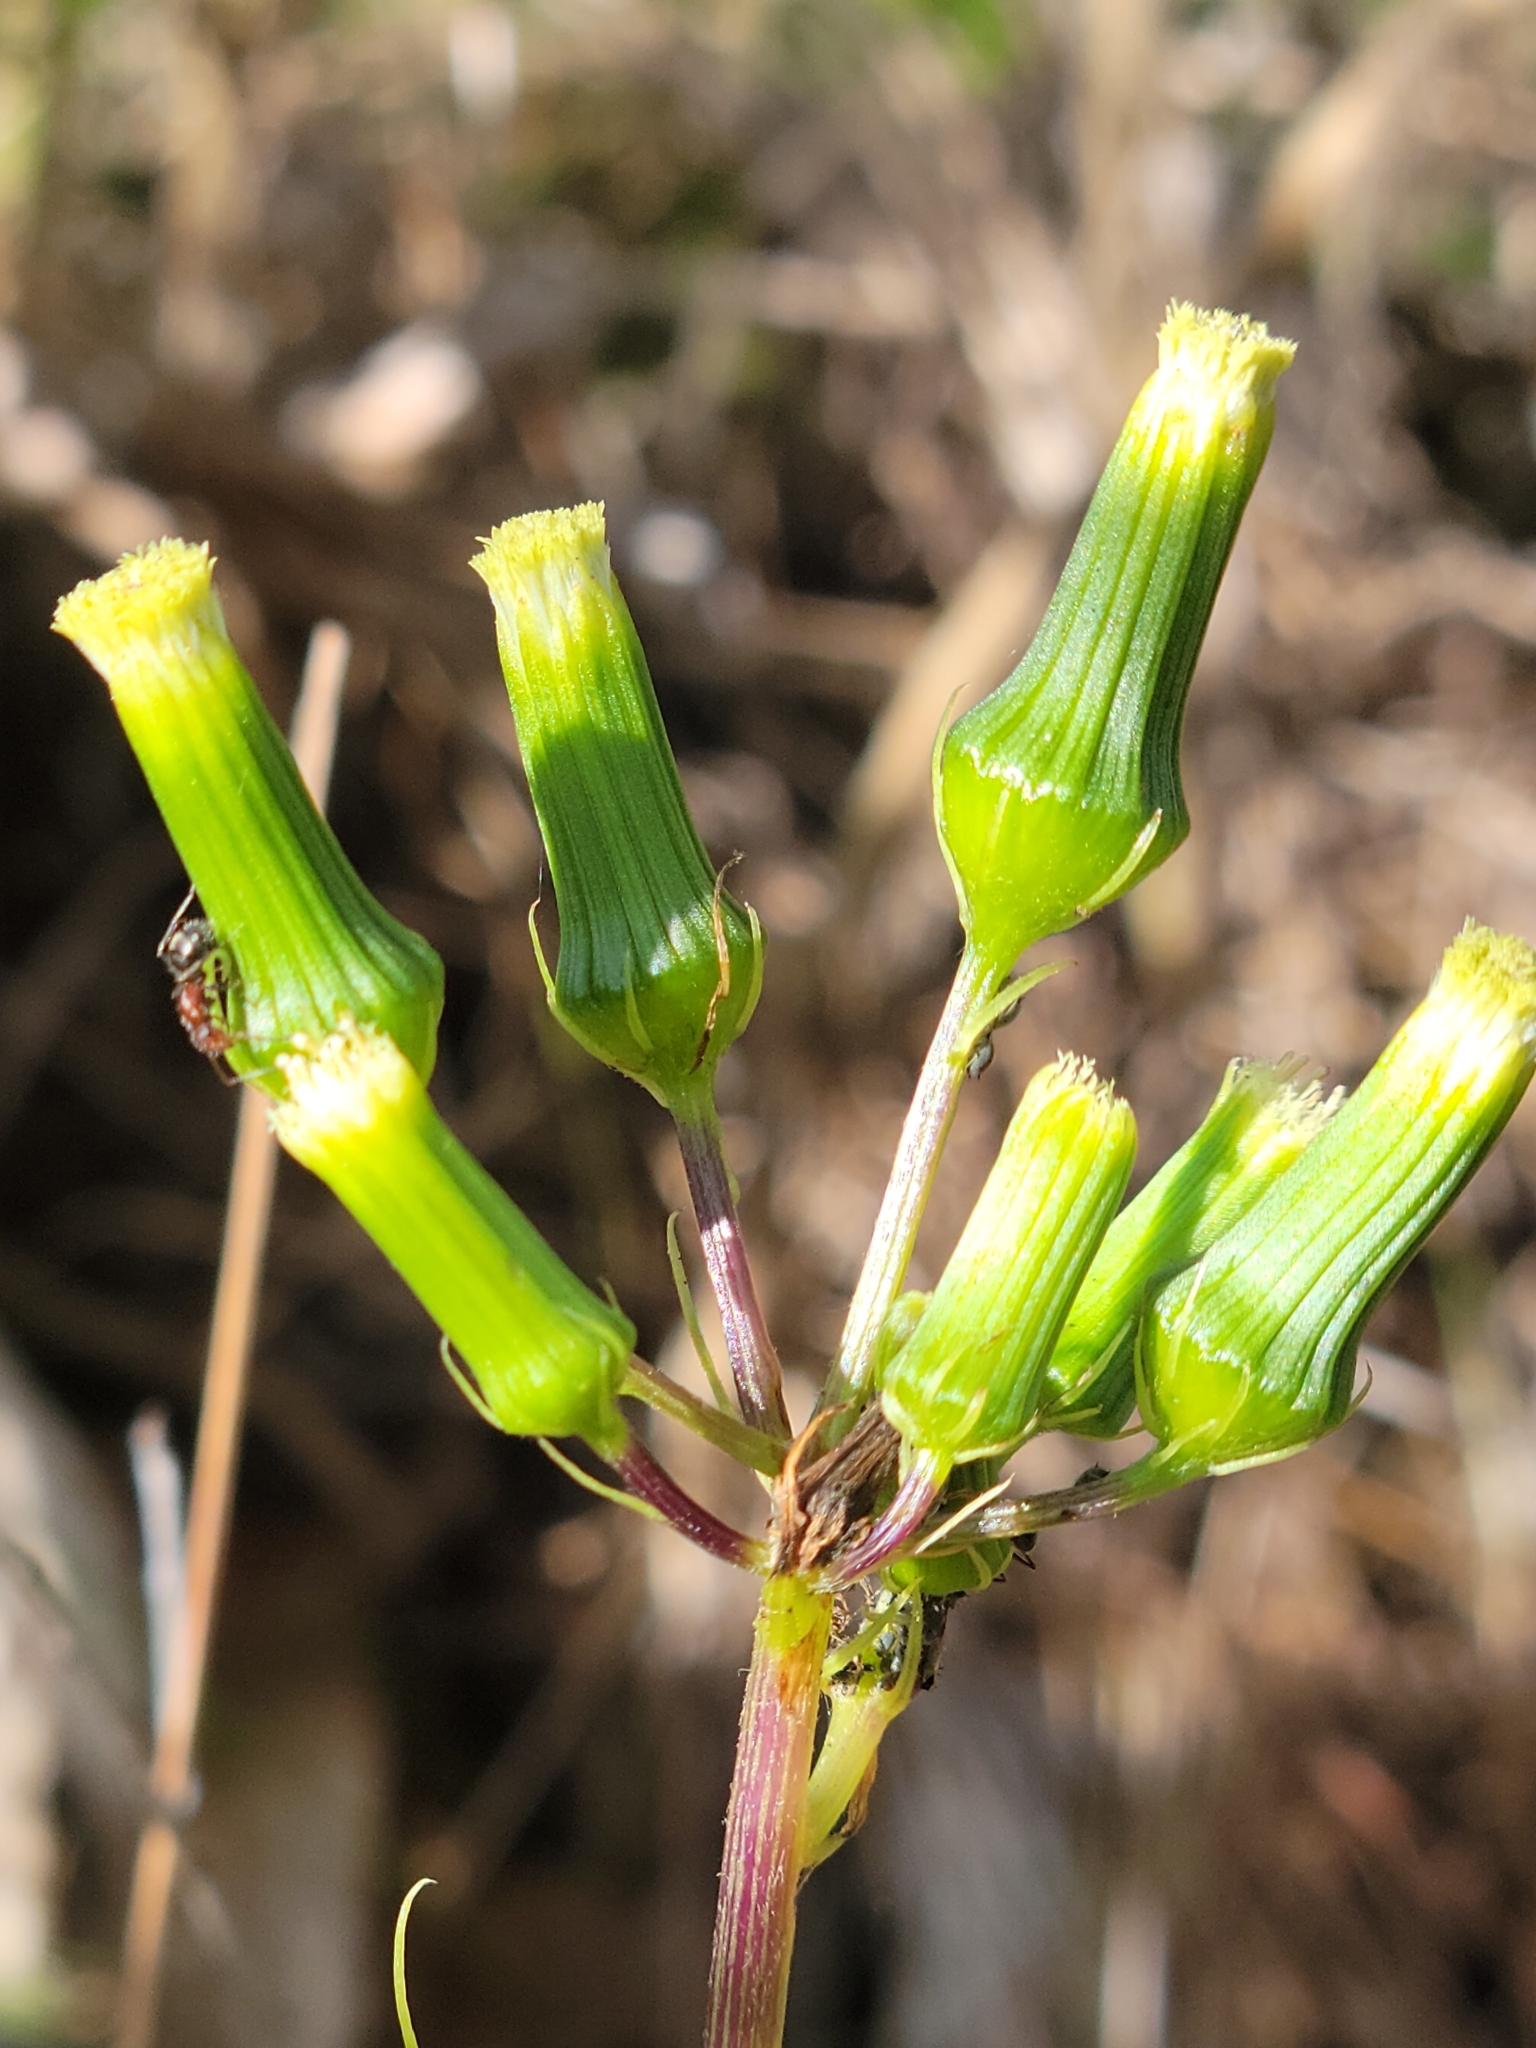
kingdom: Plantae
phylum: Tracheophyta
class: Magnoliopsida
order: Asterales
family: Asteraceae
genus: Erechtites
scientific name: Erechtites hieraciifolius
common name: American burnweed
